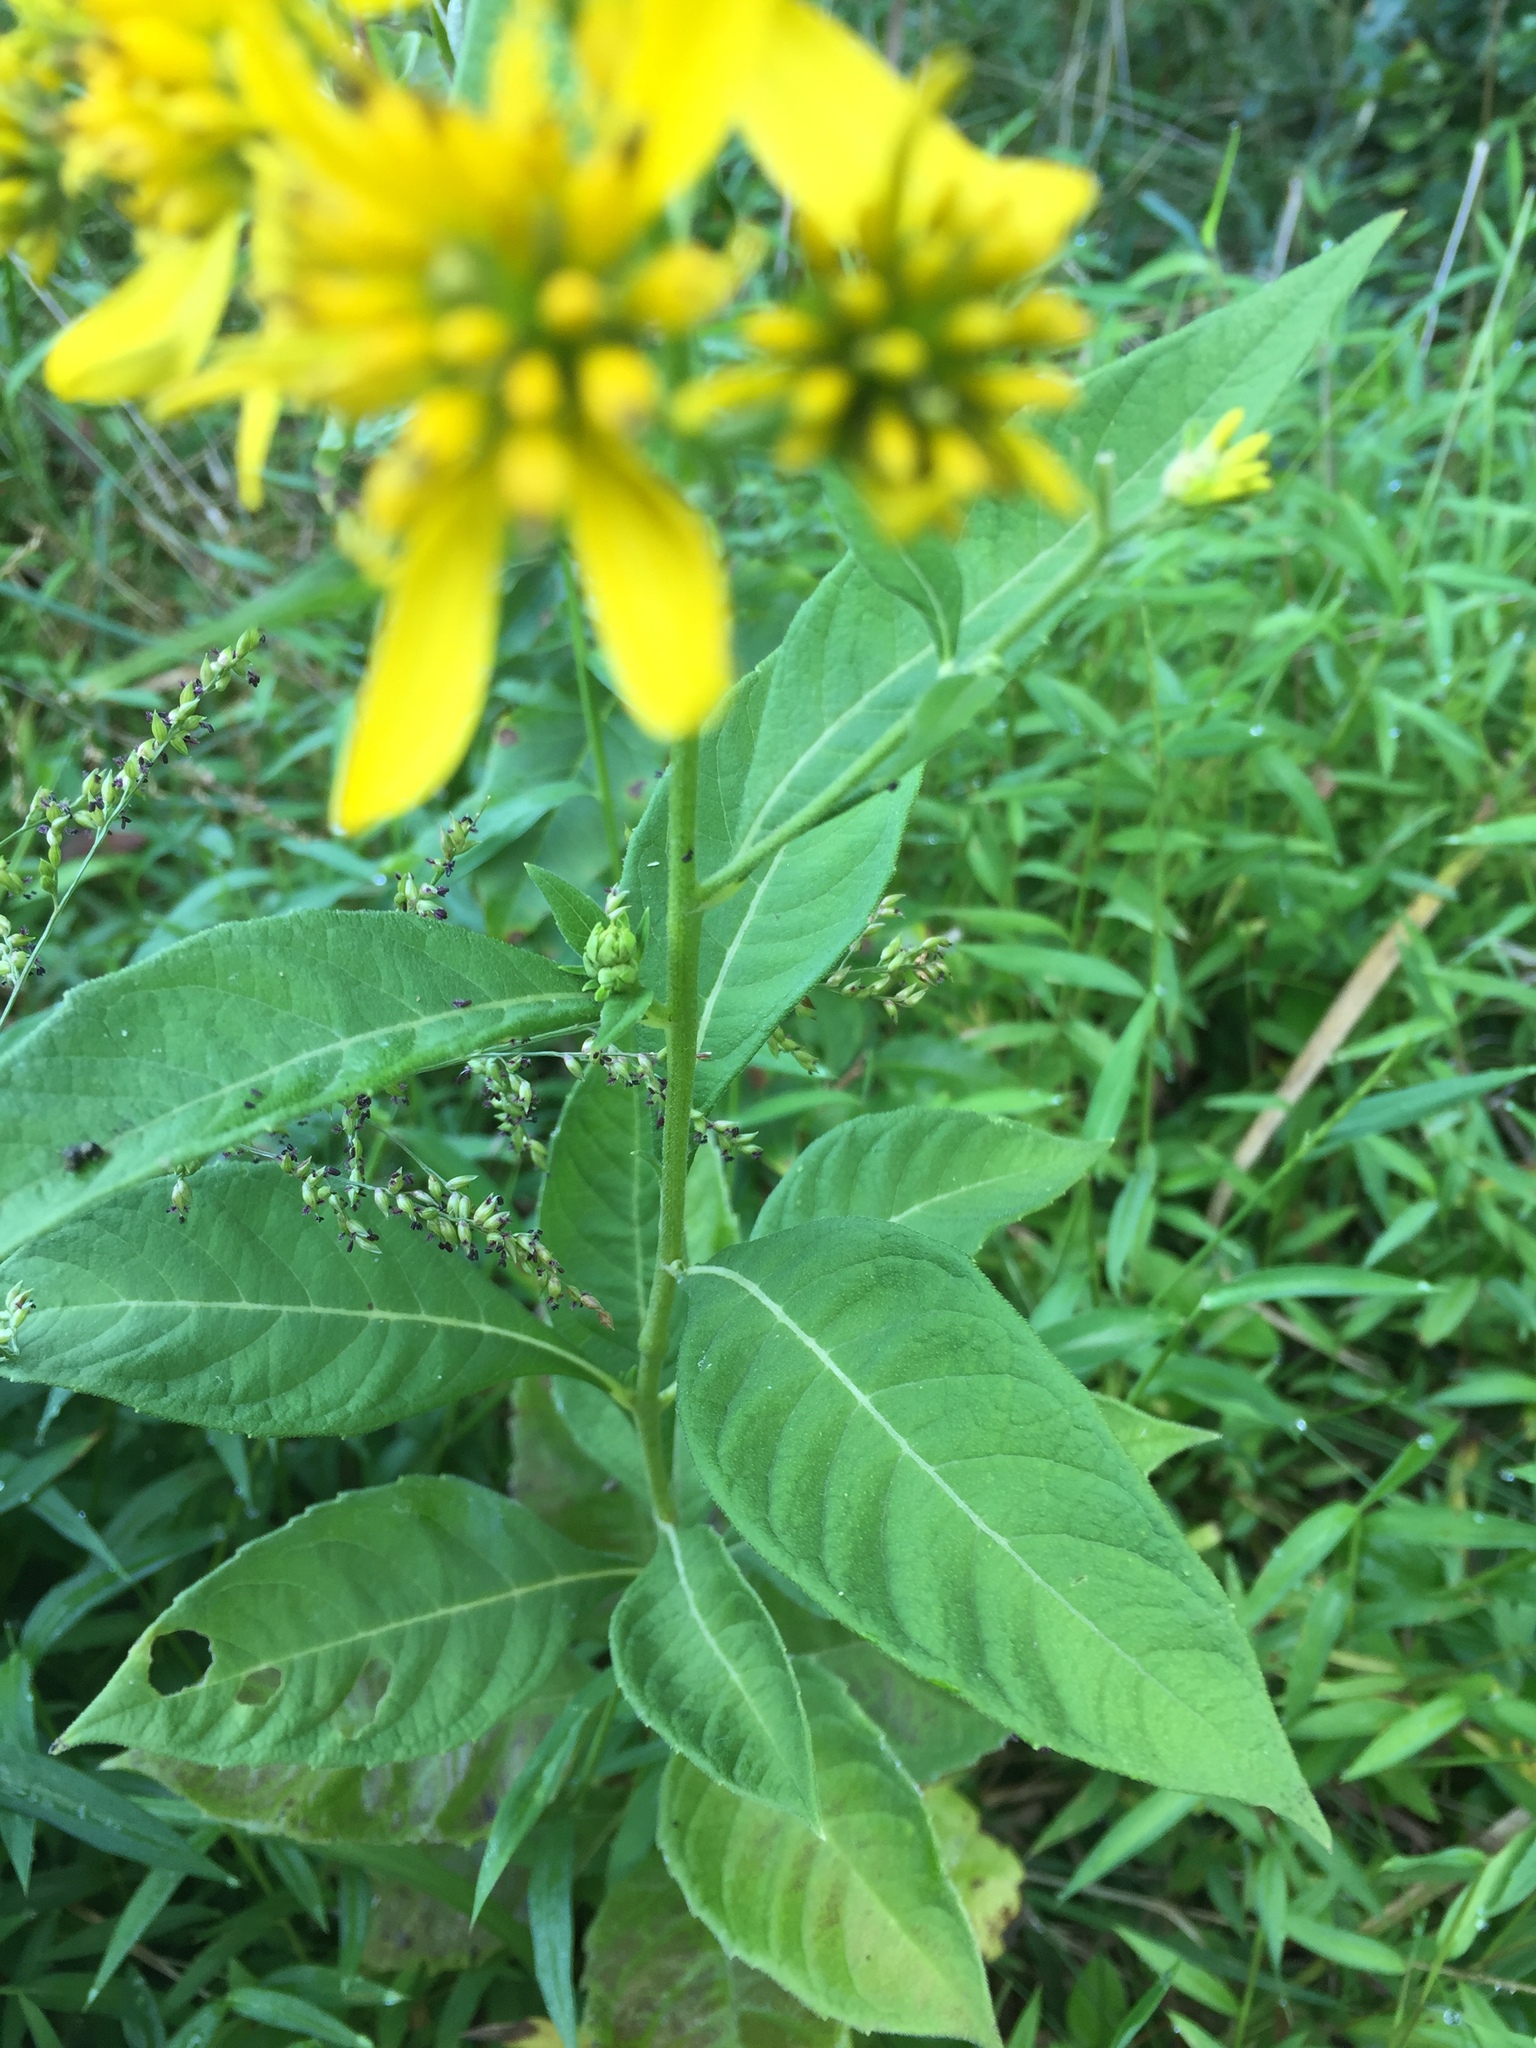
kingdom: Plantae
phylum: Tracheophyta
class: Magnoliopsida
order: Asterales
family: Asteraceae
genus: Verbesina
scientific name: Verbesina alternifolia
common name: Wingstem
